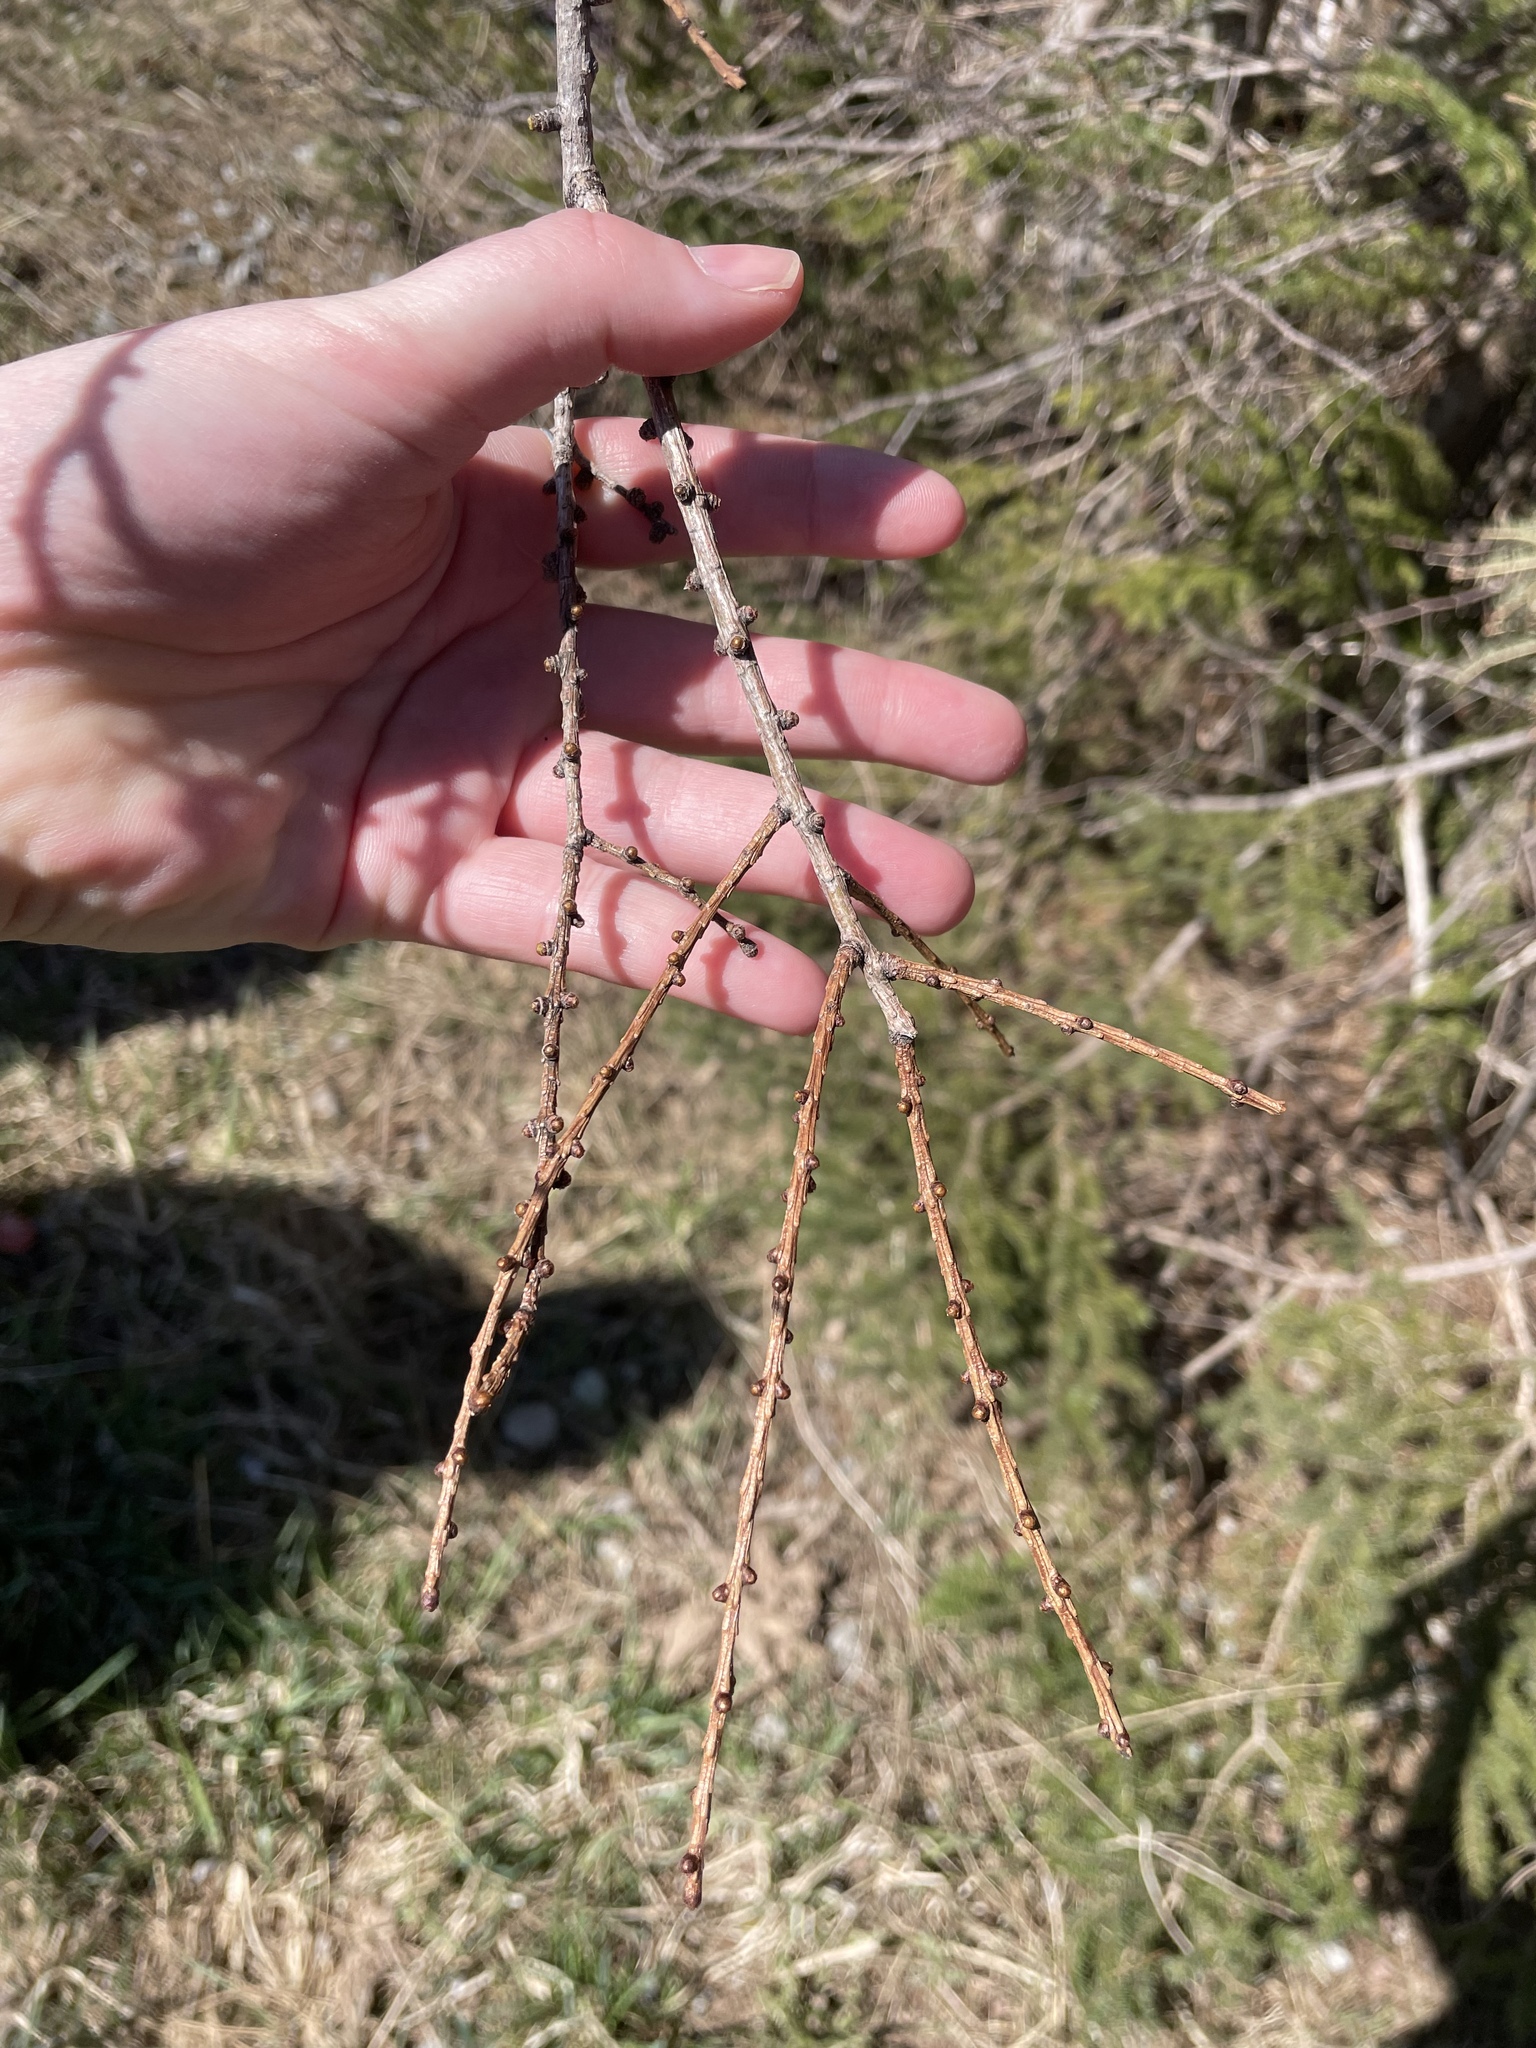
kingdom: Plantae
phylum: Tracheophyta
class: Pinopsida
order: Pinales
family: Pinaceae
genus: Larix
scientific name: Larix laricina
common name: American larch
